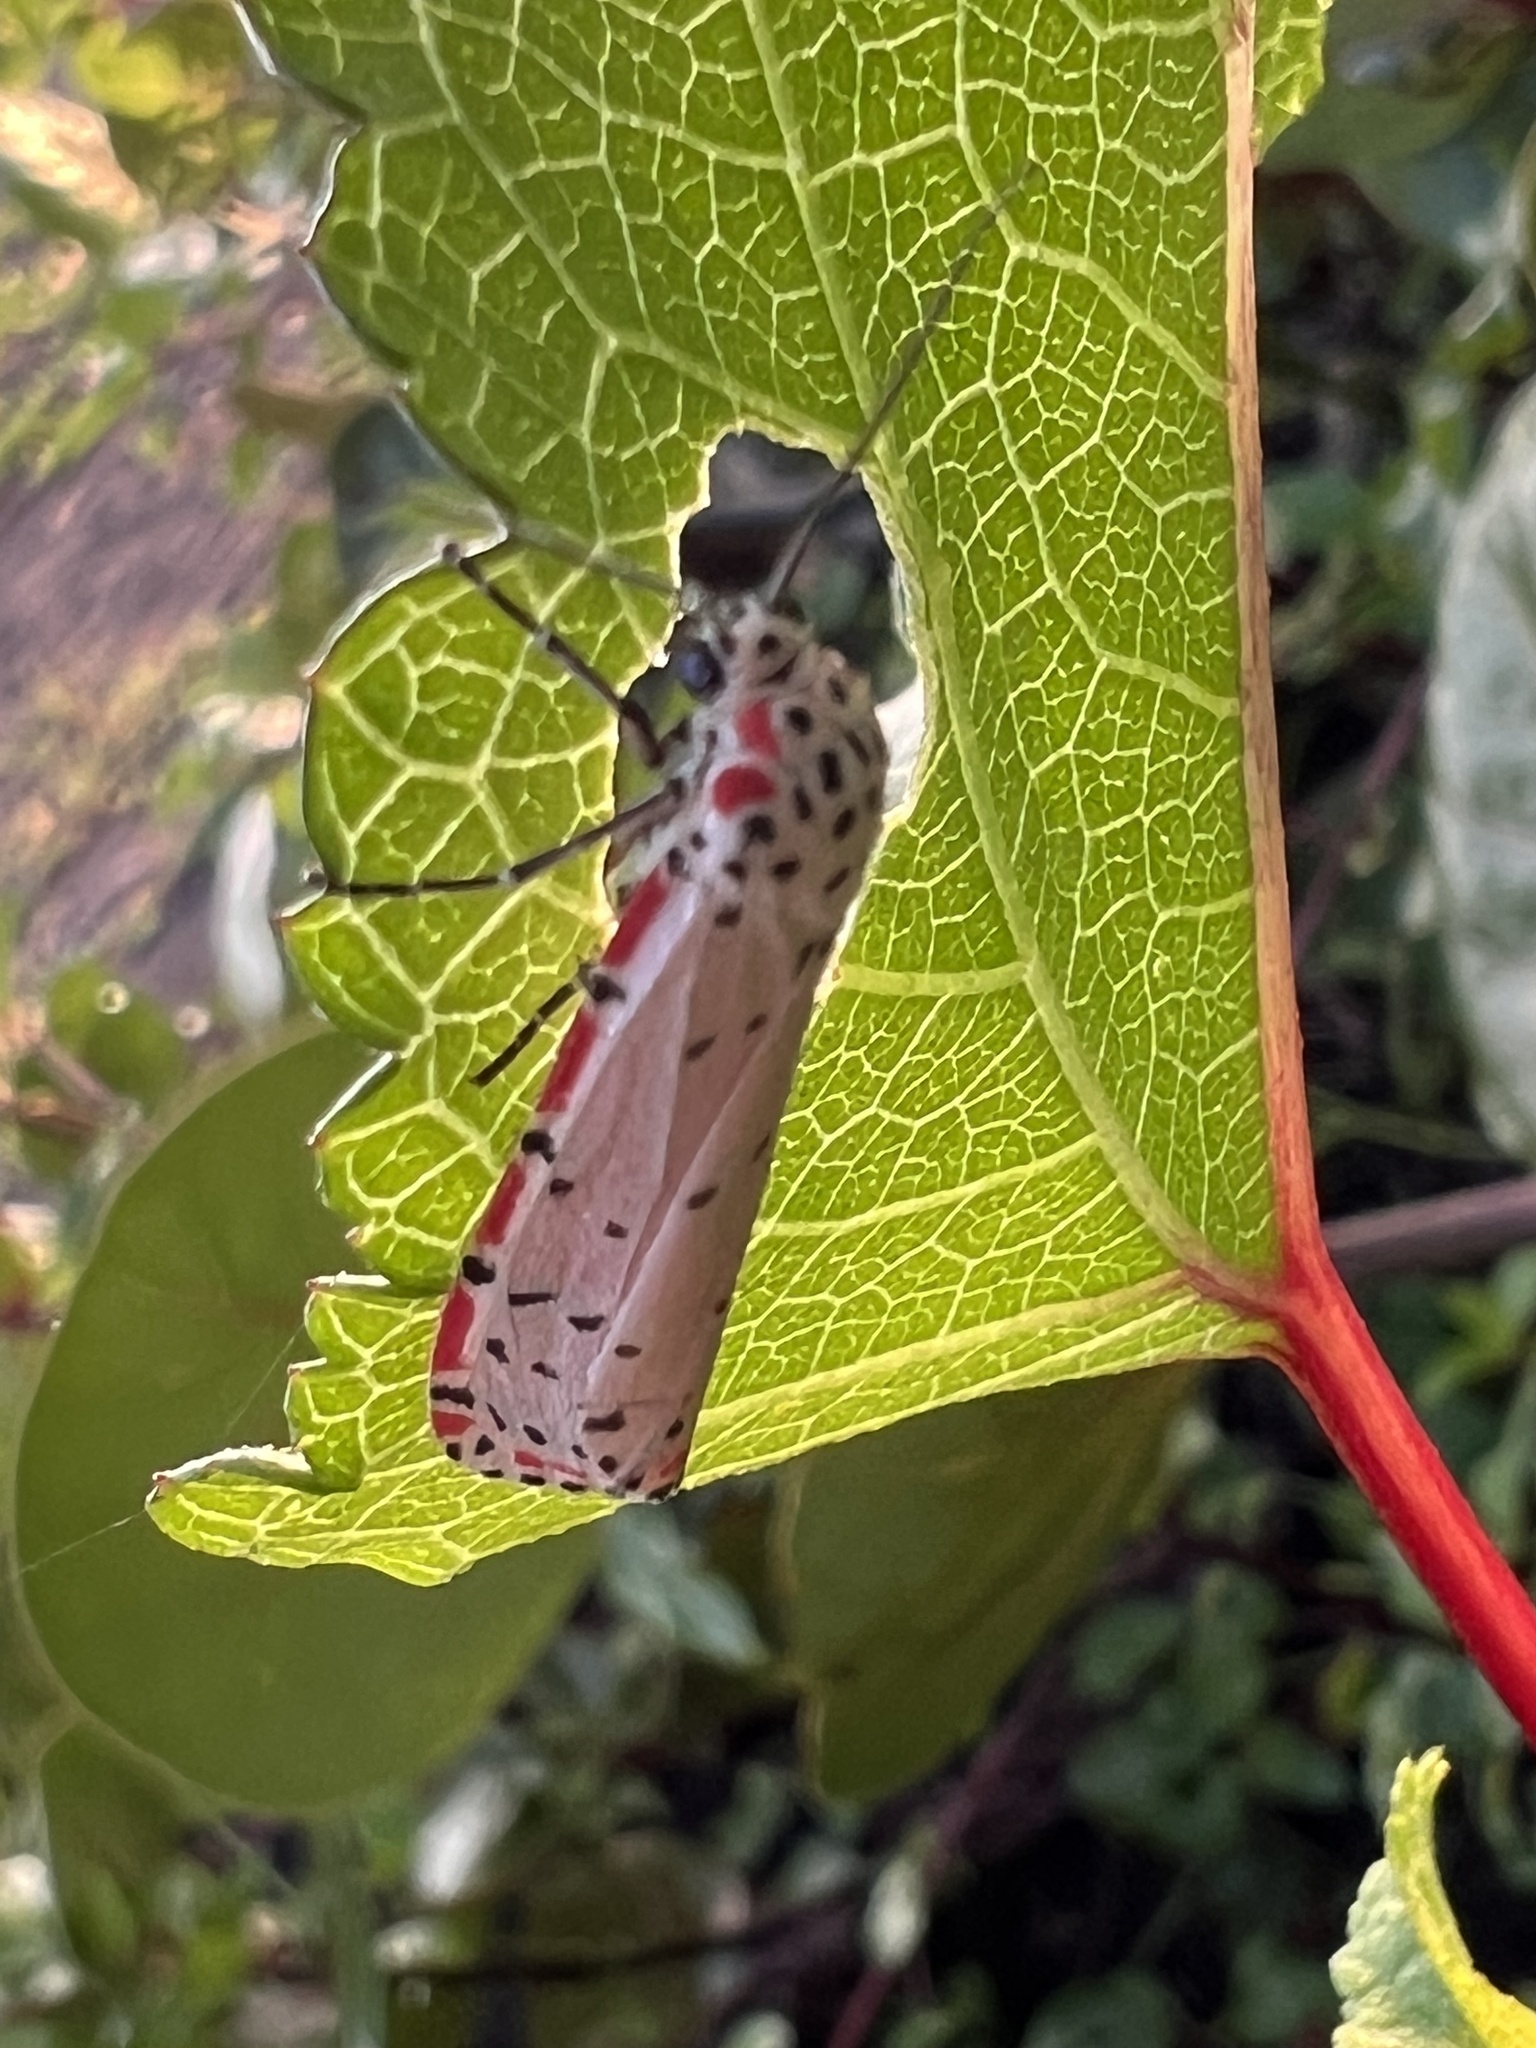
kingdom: Animalia
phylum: Arthropoda
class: Insecta
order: Lepidoptera
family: Erebidae
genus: Utetheisa
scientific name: Utetheisa ornatrix
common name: Beautiful utetheisa
